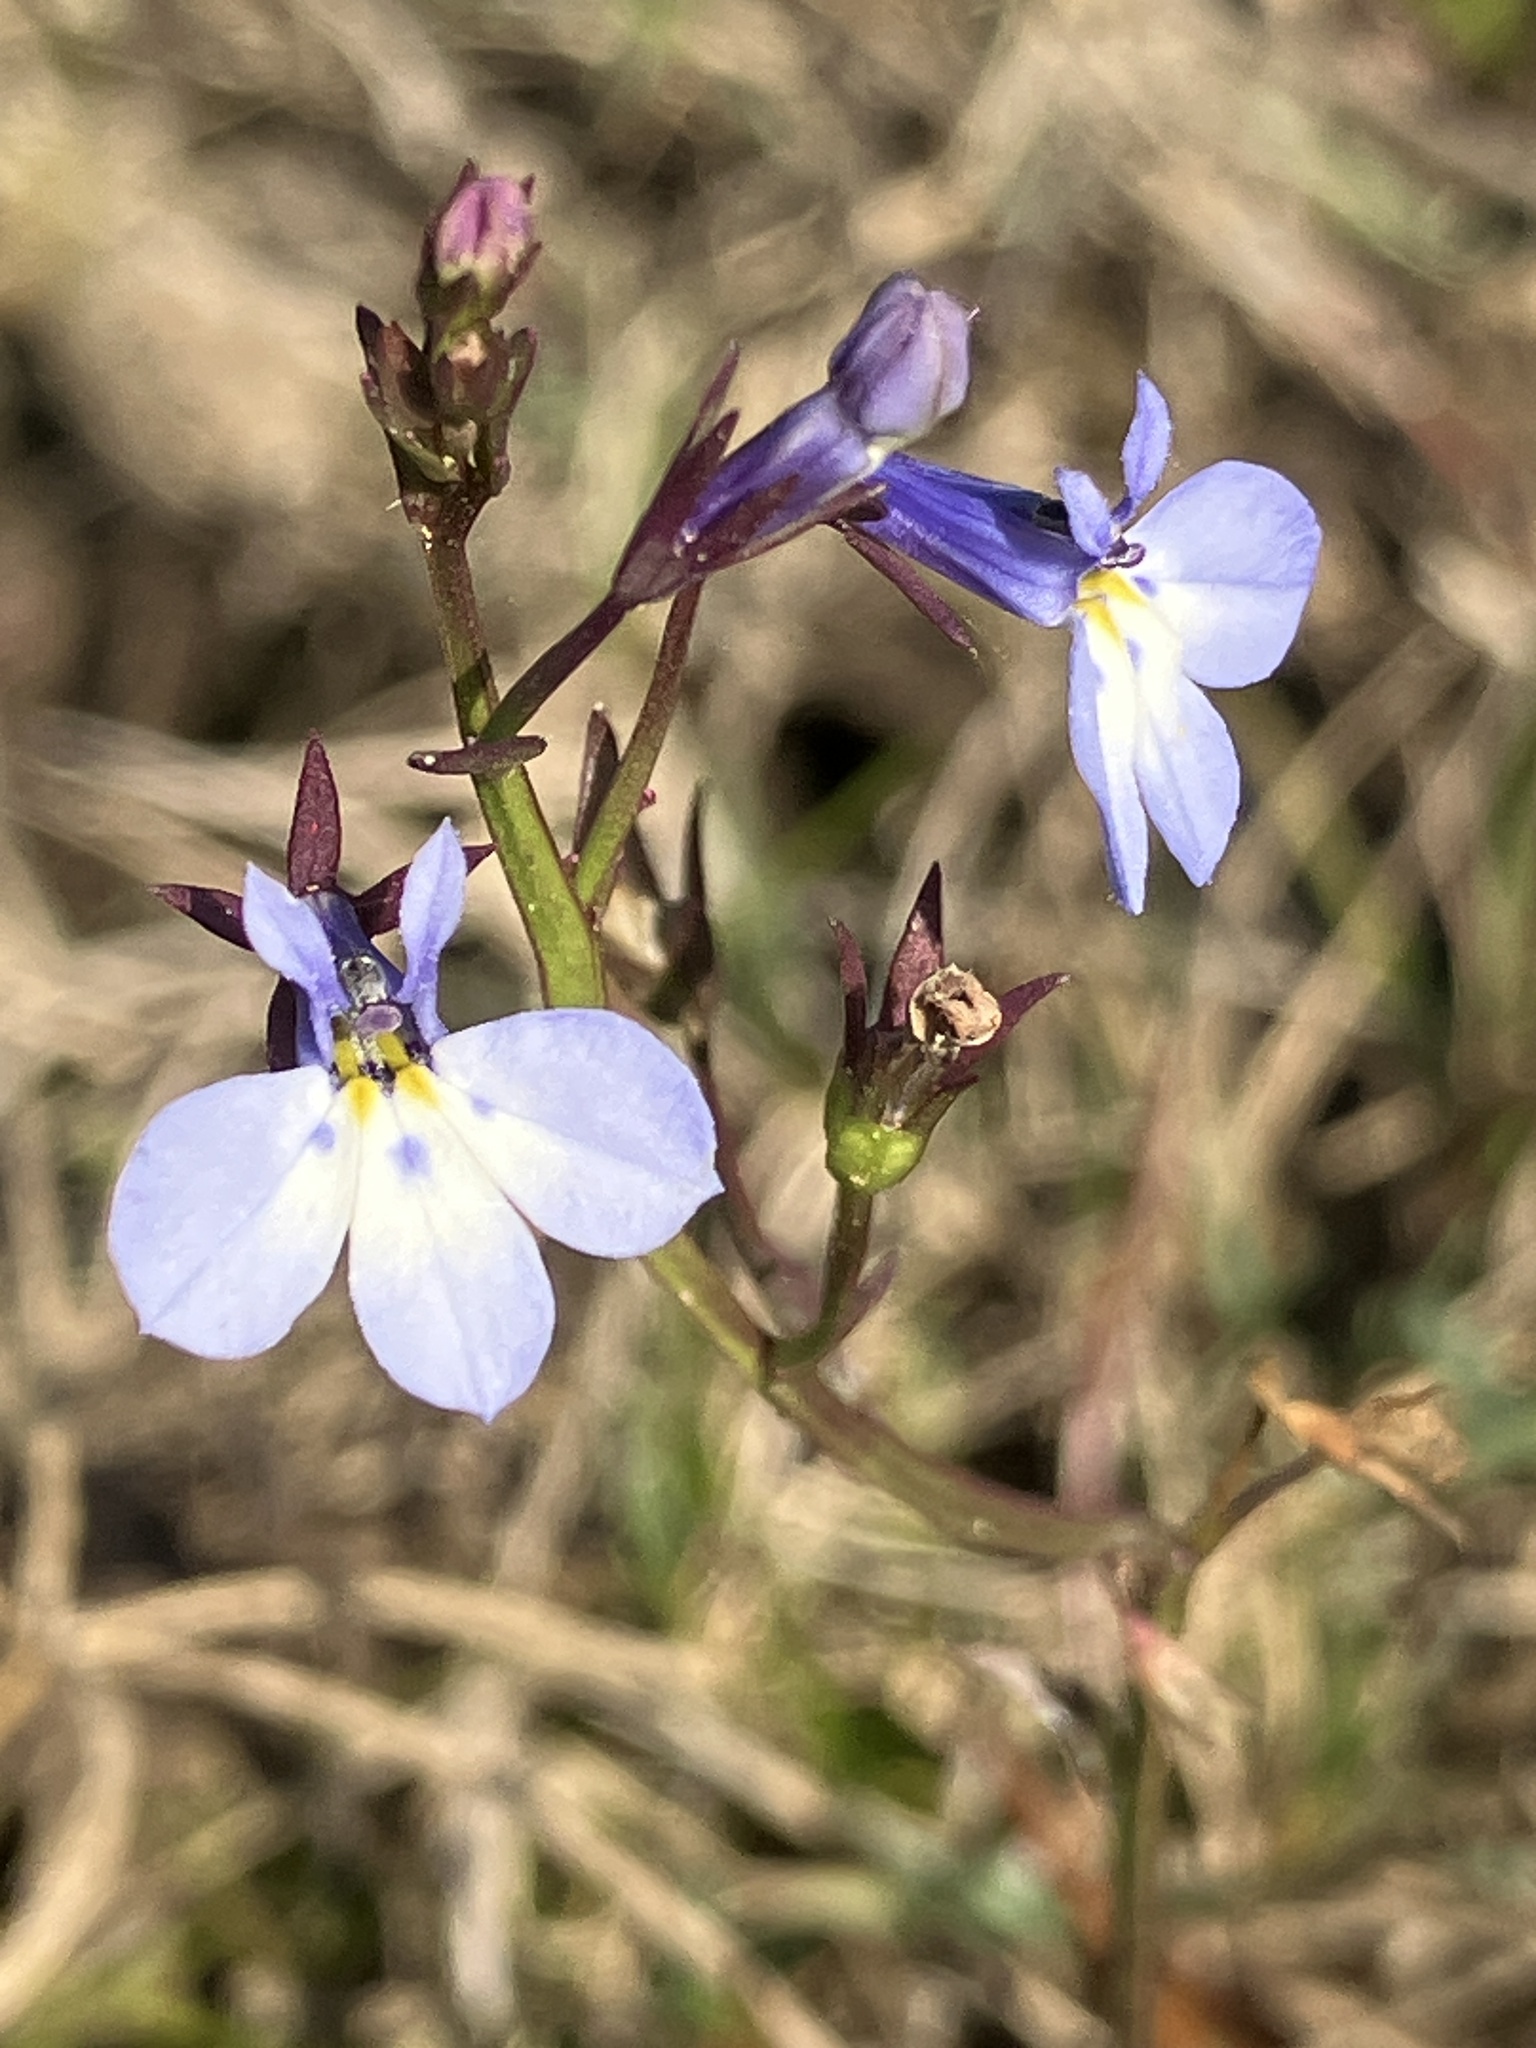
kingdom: Plantae
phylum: Tracheophyta
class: Magnoliopsida
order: Asterales
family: Campanulaceae
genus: Lobelia
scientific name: Lobelia erinus
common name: Edging lobelia
